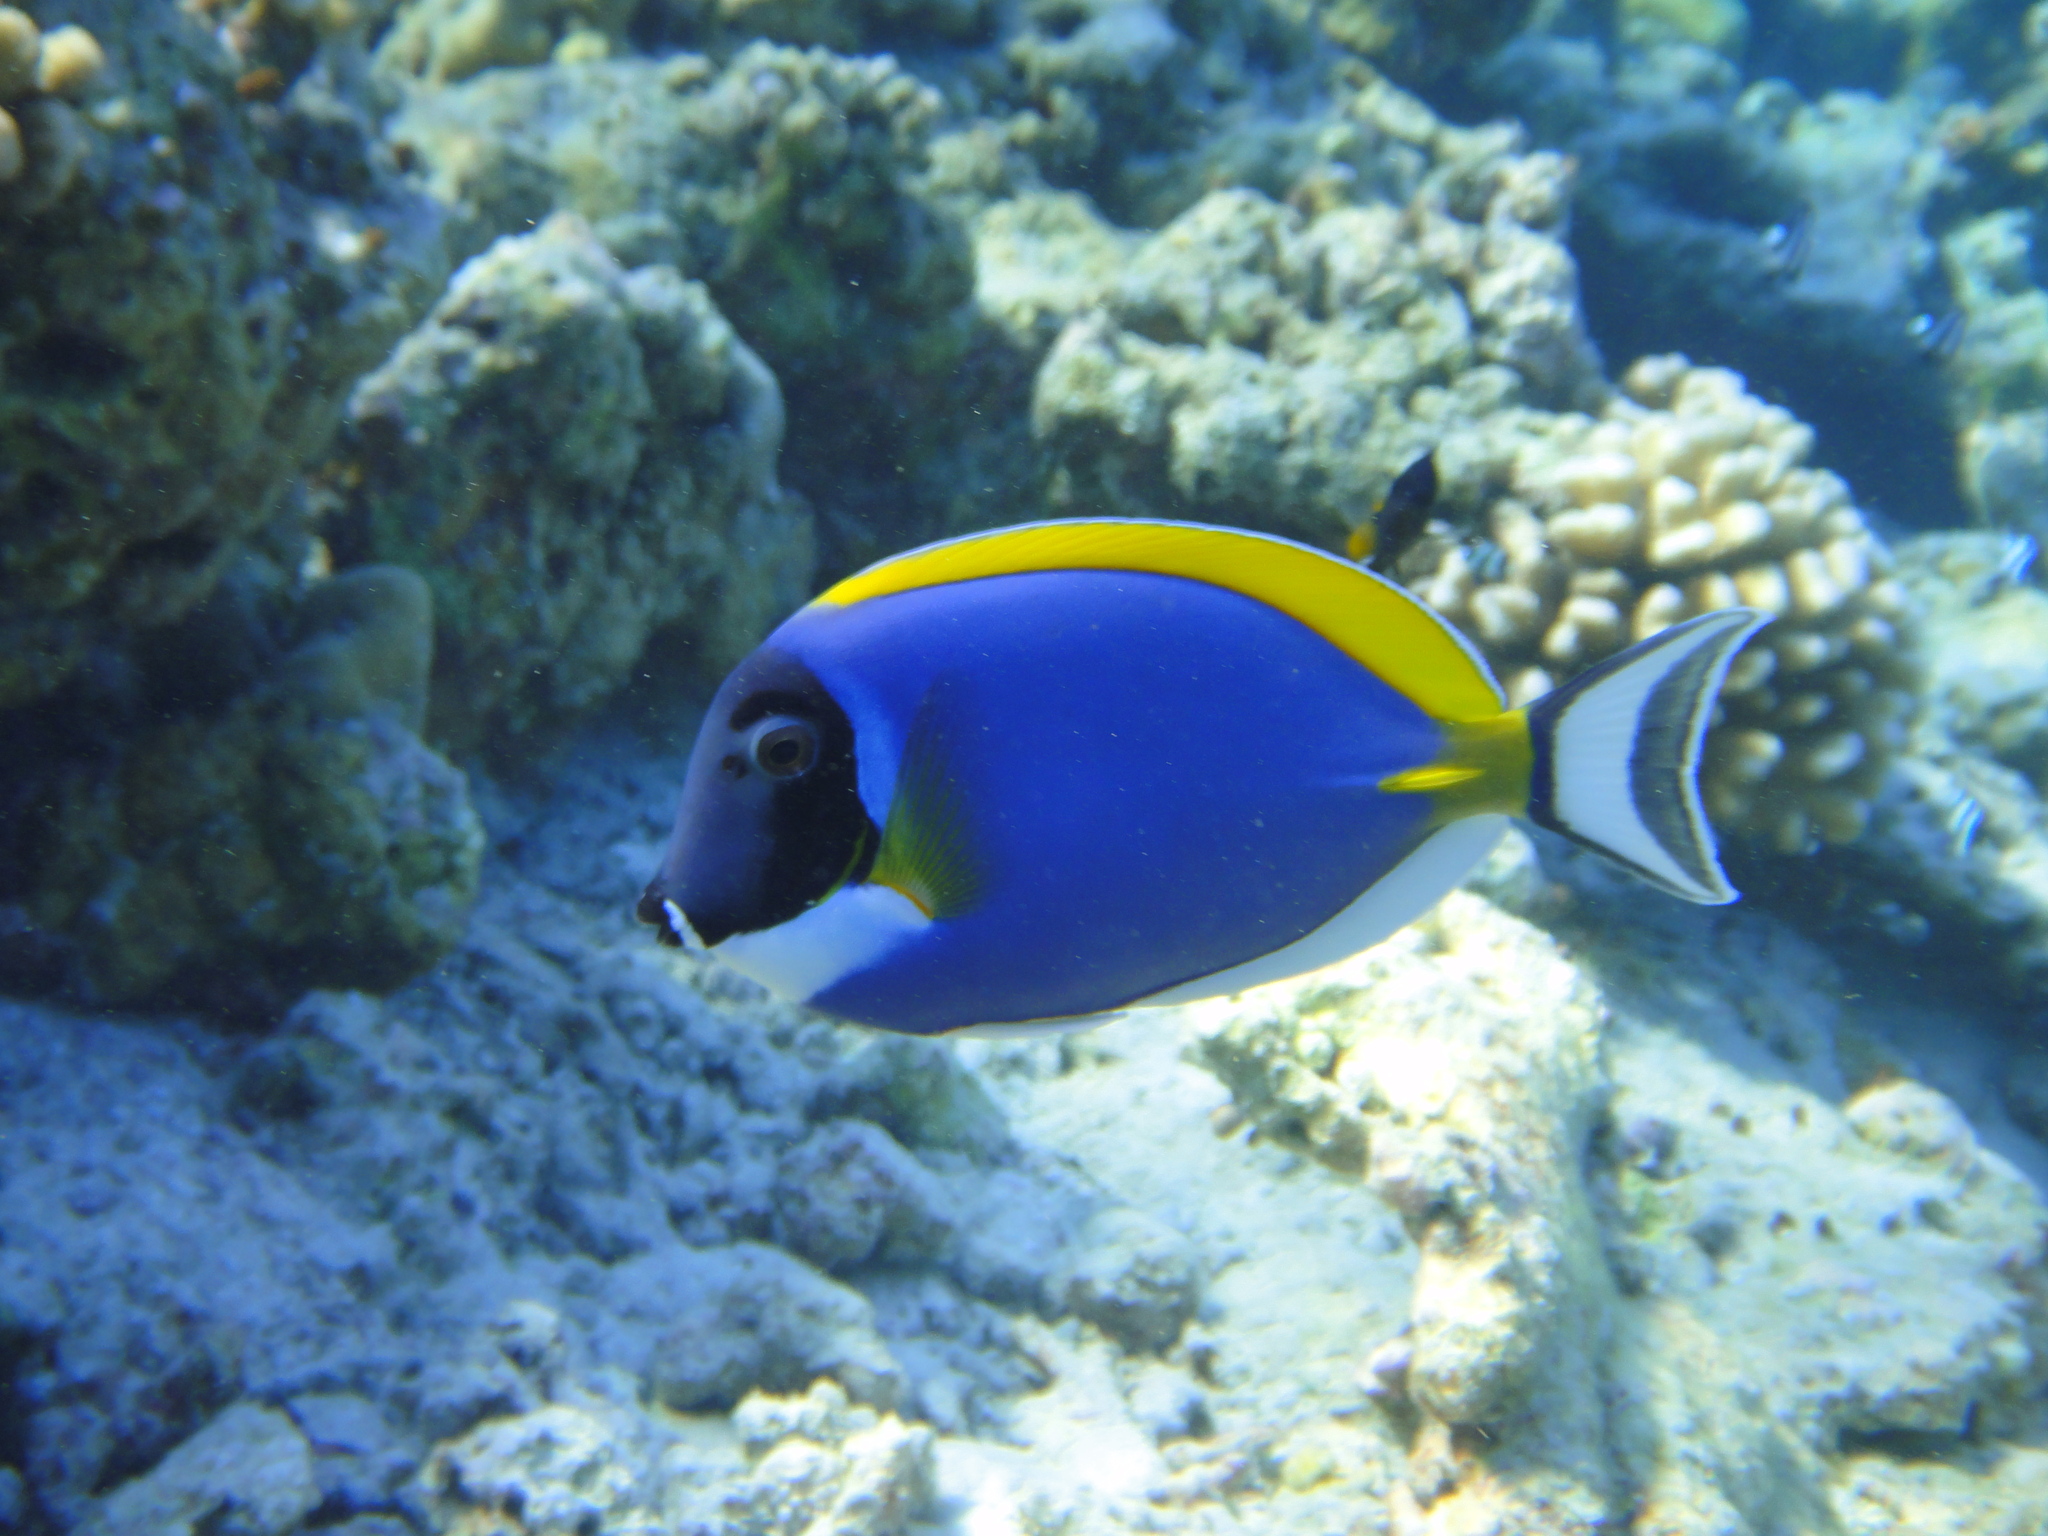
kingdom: Animalia
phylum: Chordata
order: Perciformes
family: Acanthuridae
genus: Acanthurus
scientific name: Acanthurus leucosternon
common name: Blue surgeonfish
